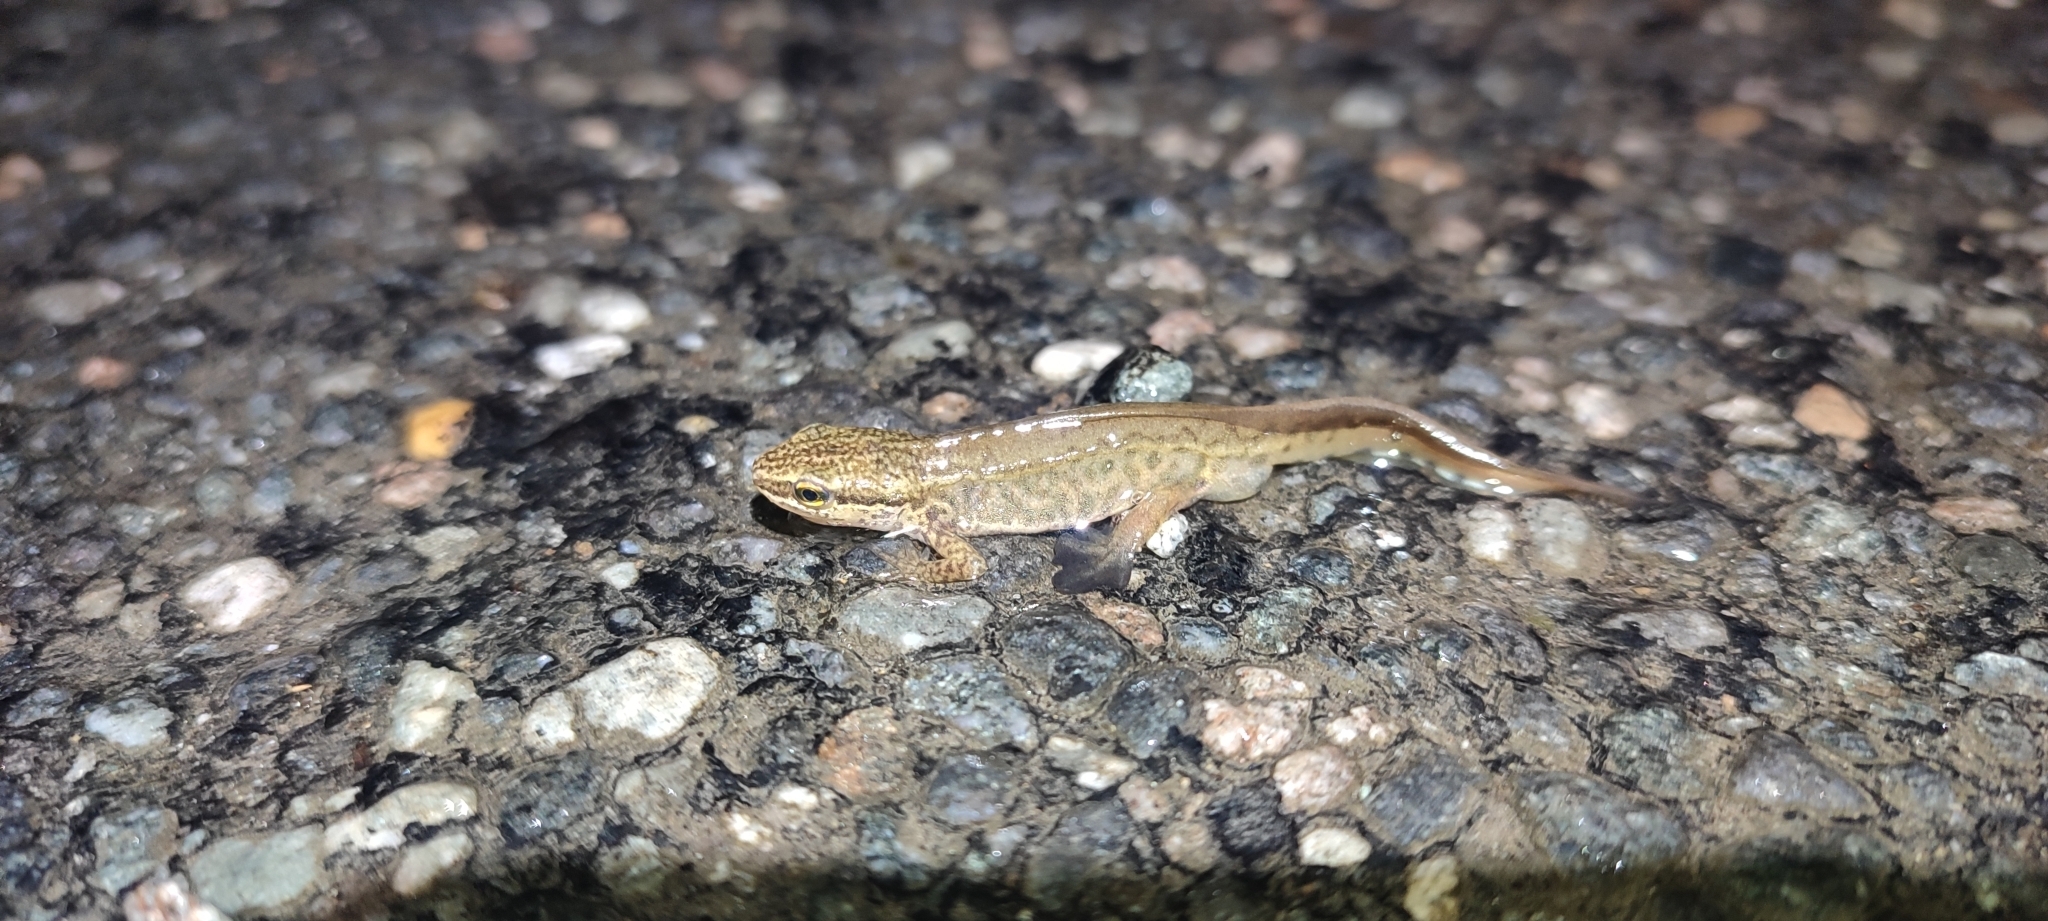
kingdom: Animalia
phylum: Chordata
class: Amphibia
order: Caudata
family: Salamandridae
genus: Lissotriton
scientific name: Lissotriton helveticus
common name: Palmate newt
